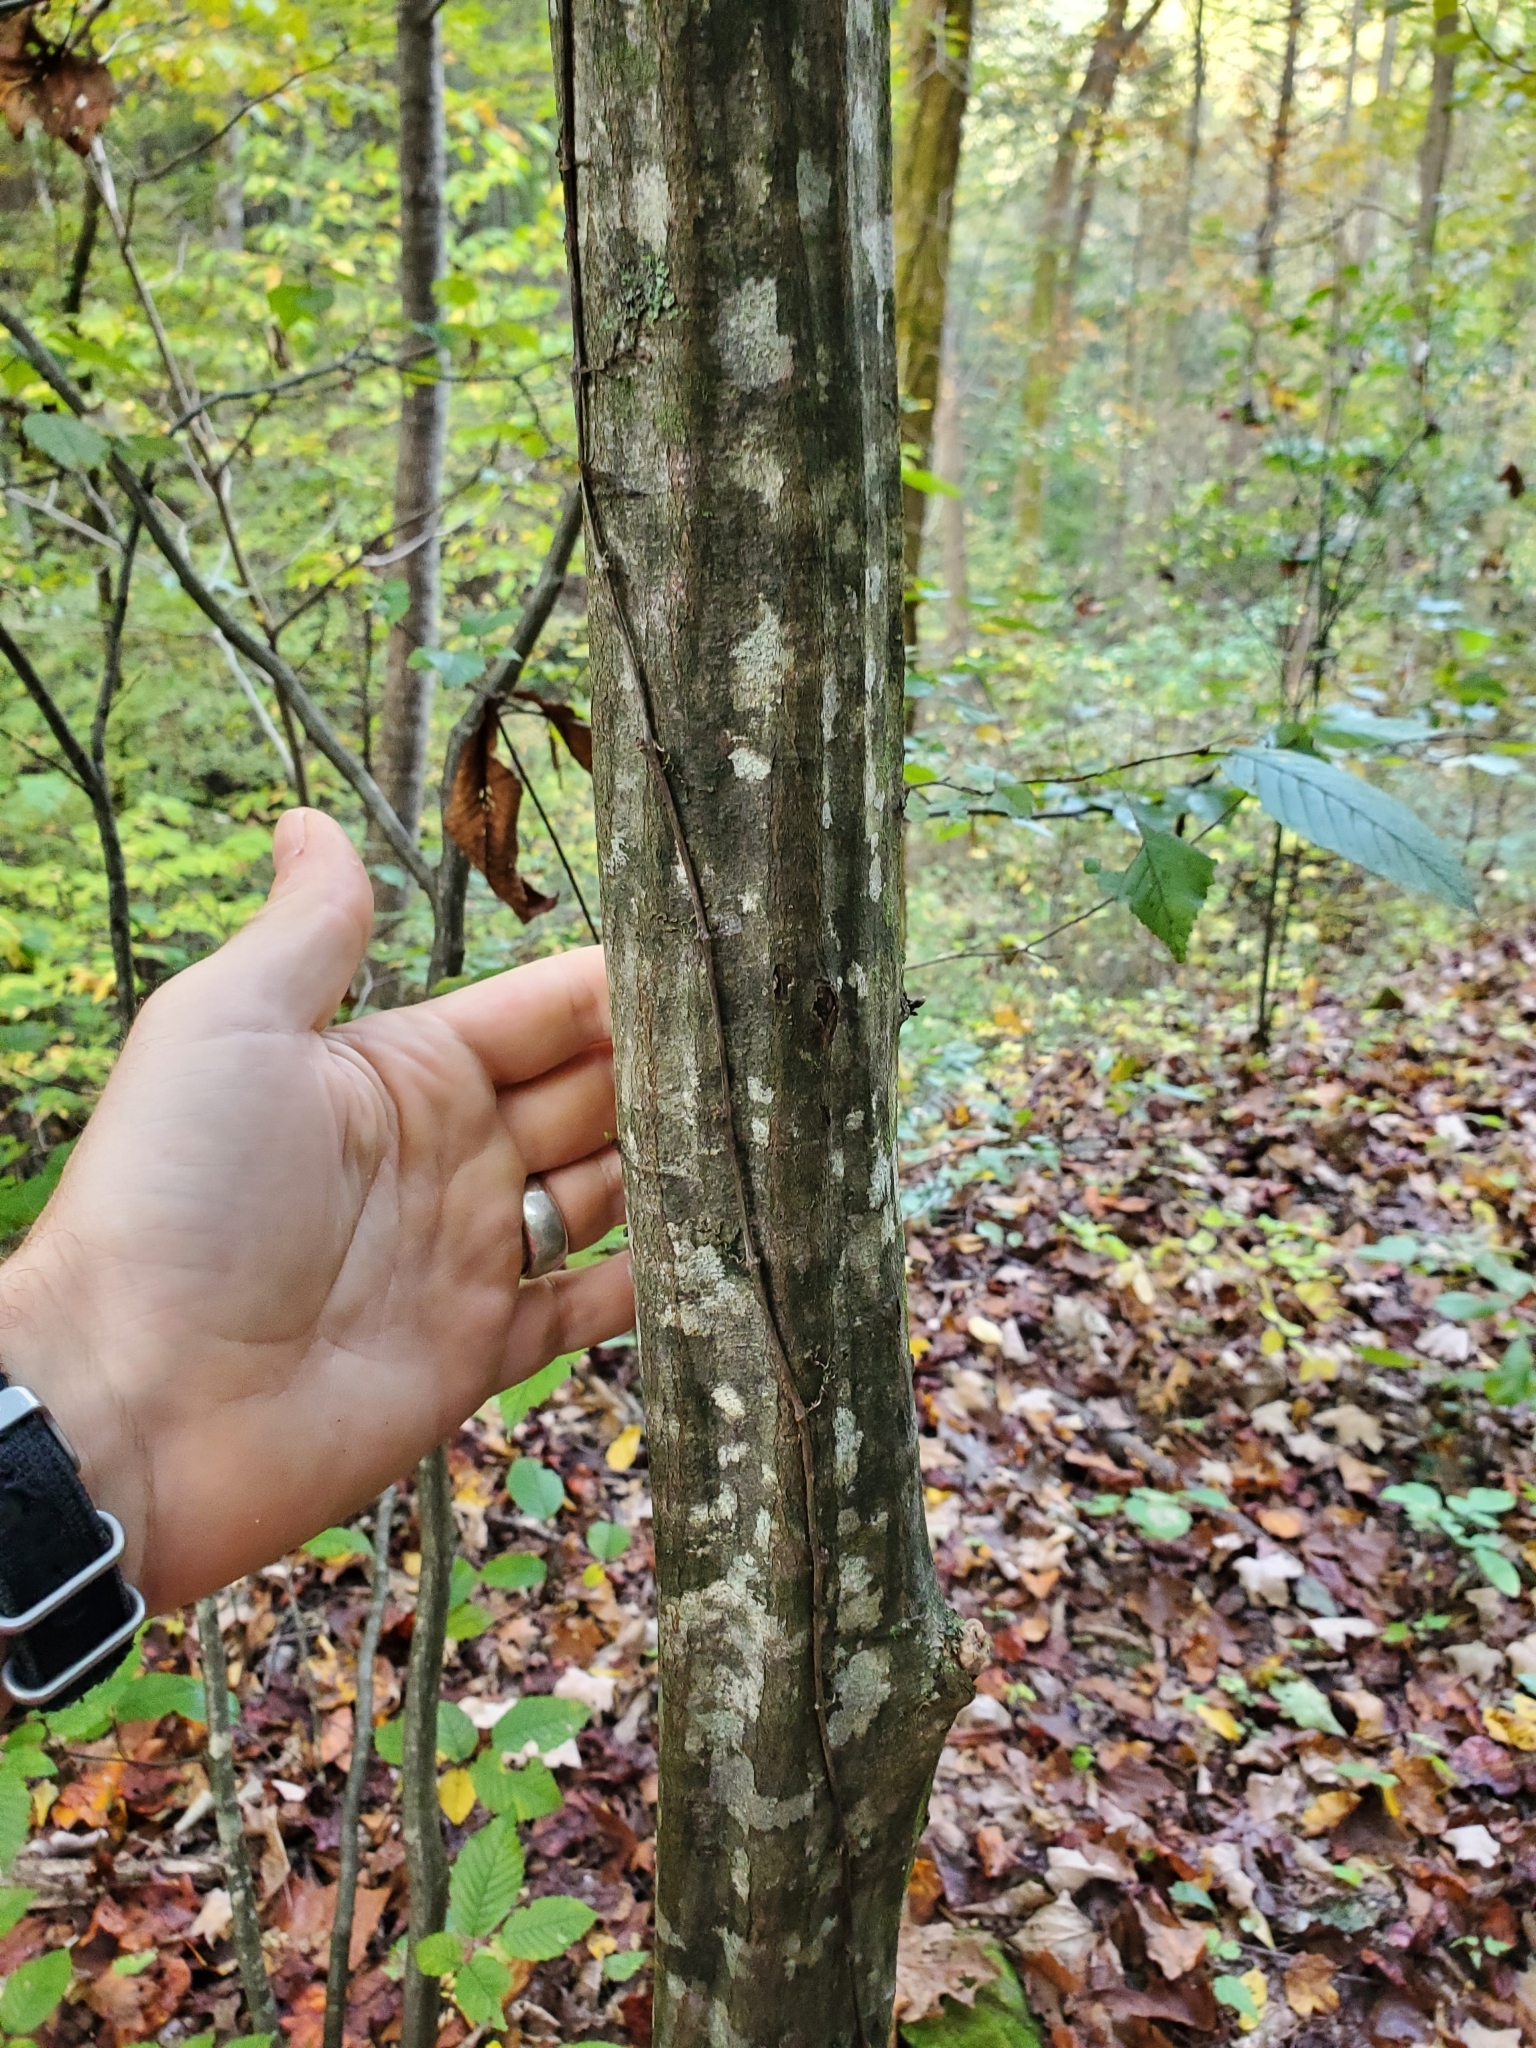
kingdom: Plantae
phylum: Tracheophyta
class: Magnoliopsida
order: Fagales
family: Betulaceae
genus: Carpinus
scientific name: Carpinus caroliniana
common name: American hornbeam
